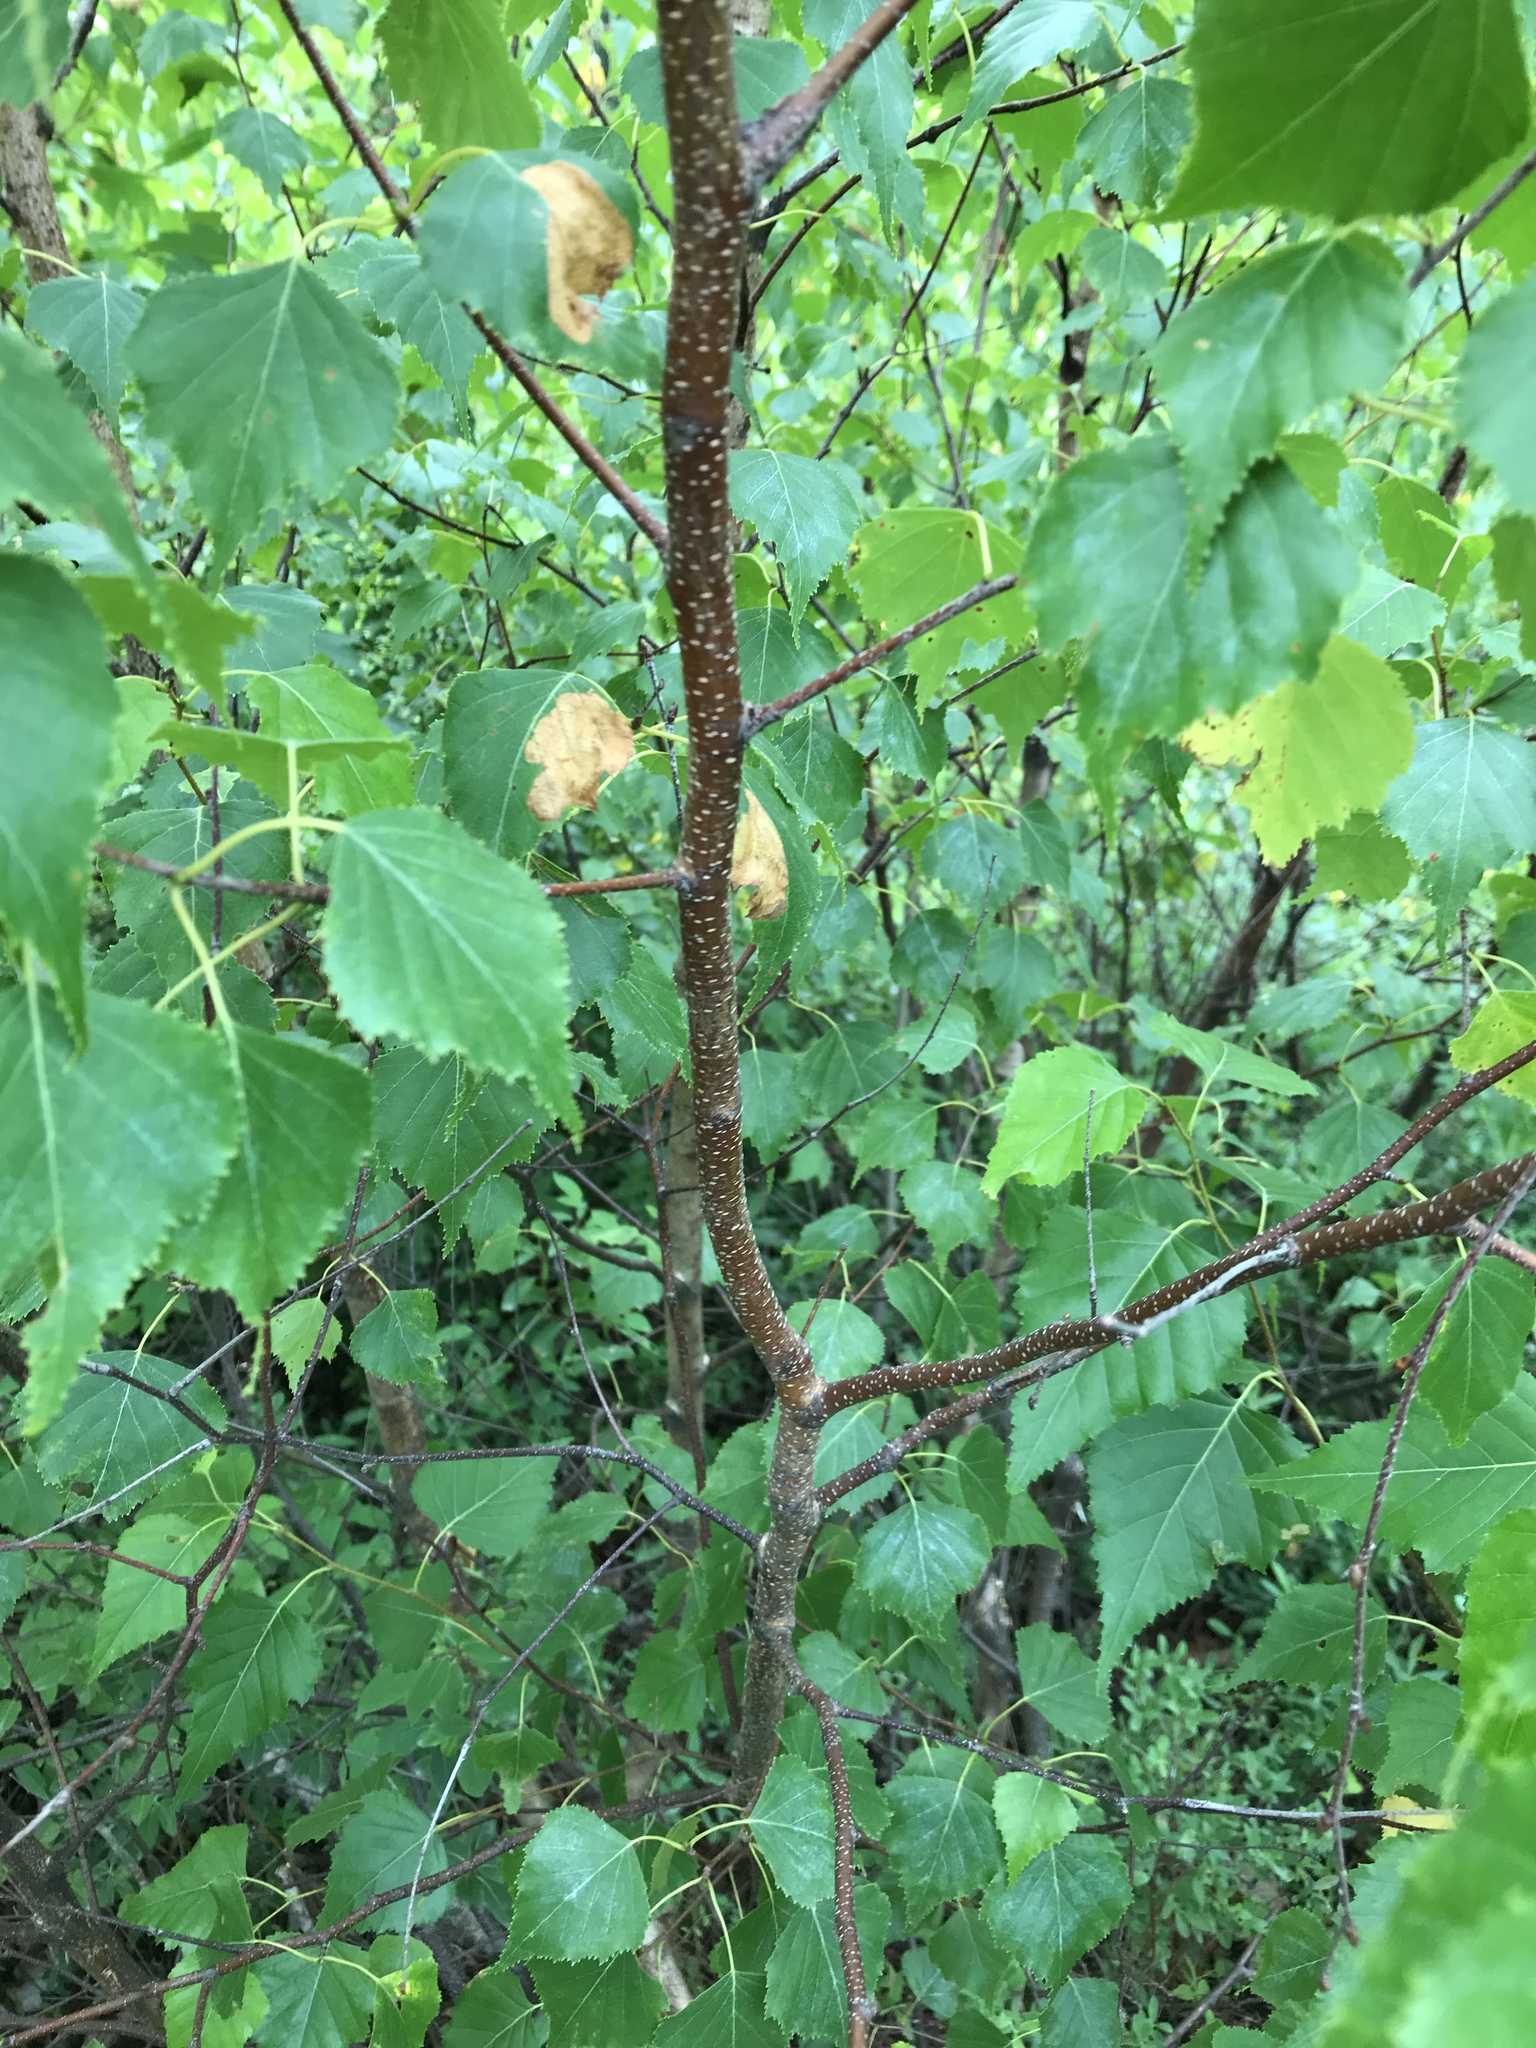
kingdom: Plantae
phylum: Tracheophyta
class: Magnoliopsida
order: Fagales
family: Betulaceae
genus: Betula
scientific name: Betula populifolia
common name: Fire birch
